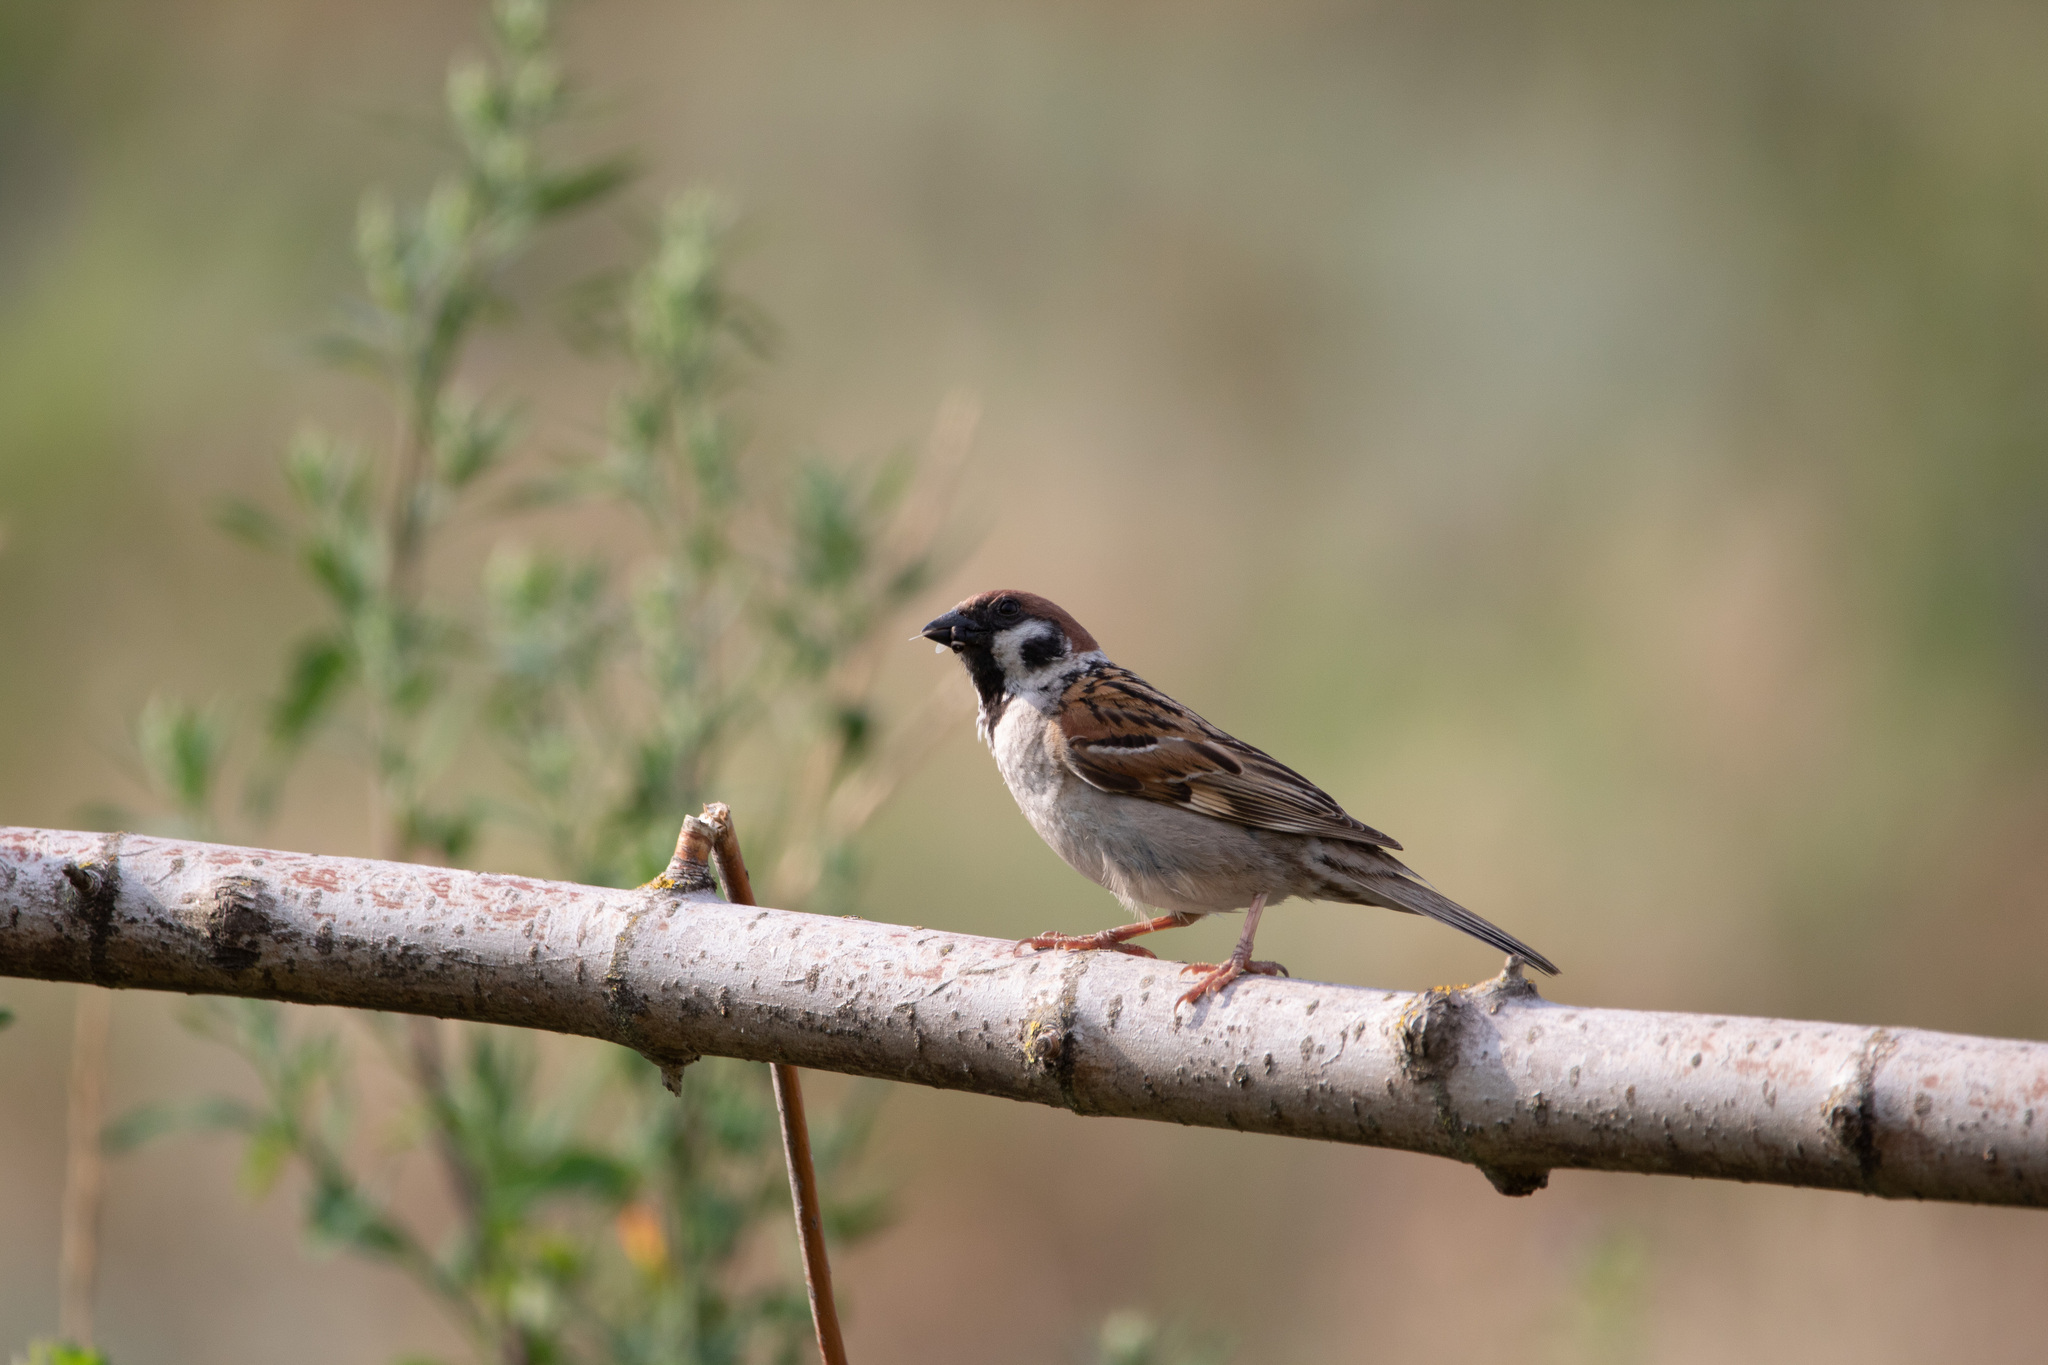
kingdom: Animalia
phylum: Chordata
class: Aves
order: Passeriformes
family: Passeridae
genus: Passer
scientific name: Passer montanus
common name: Eurasian tree sparrow
